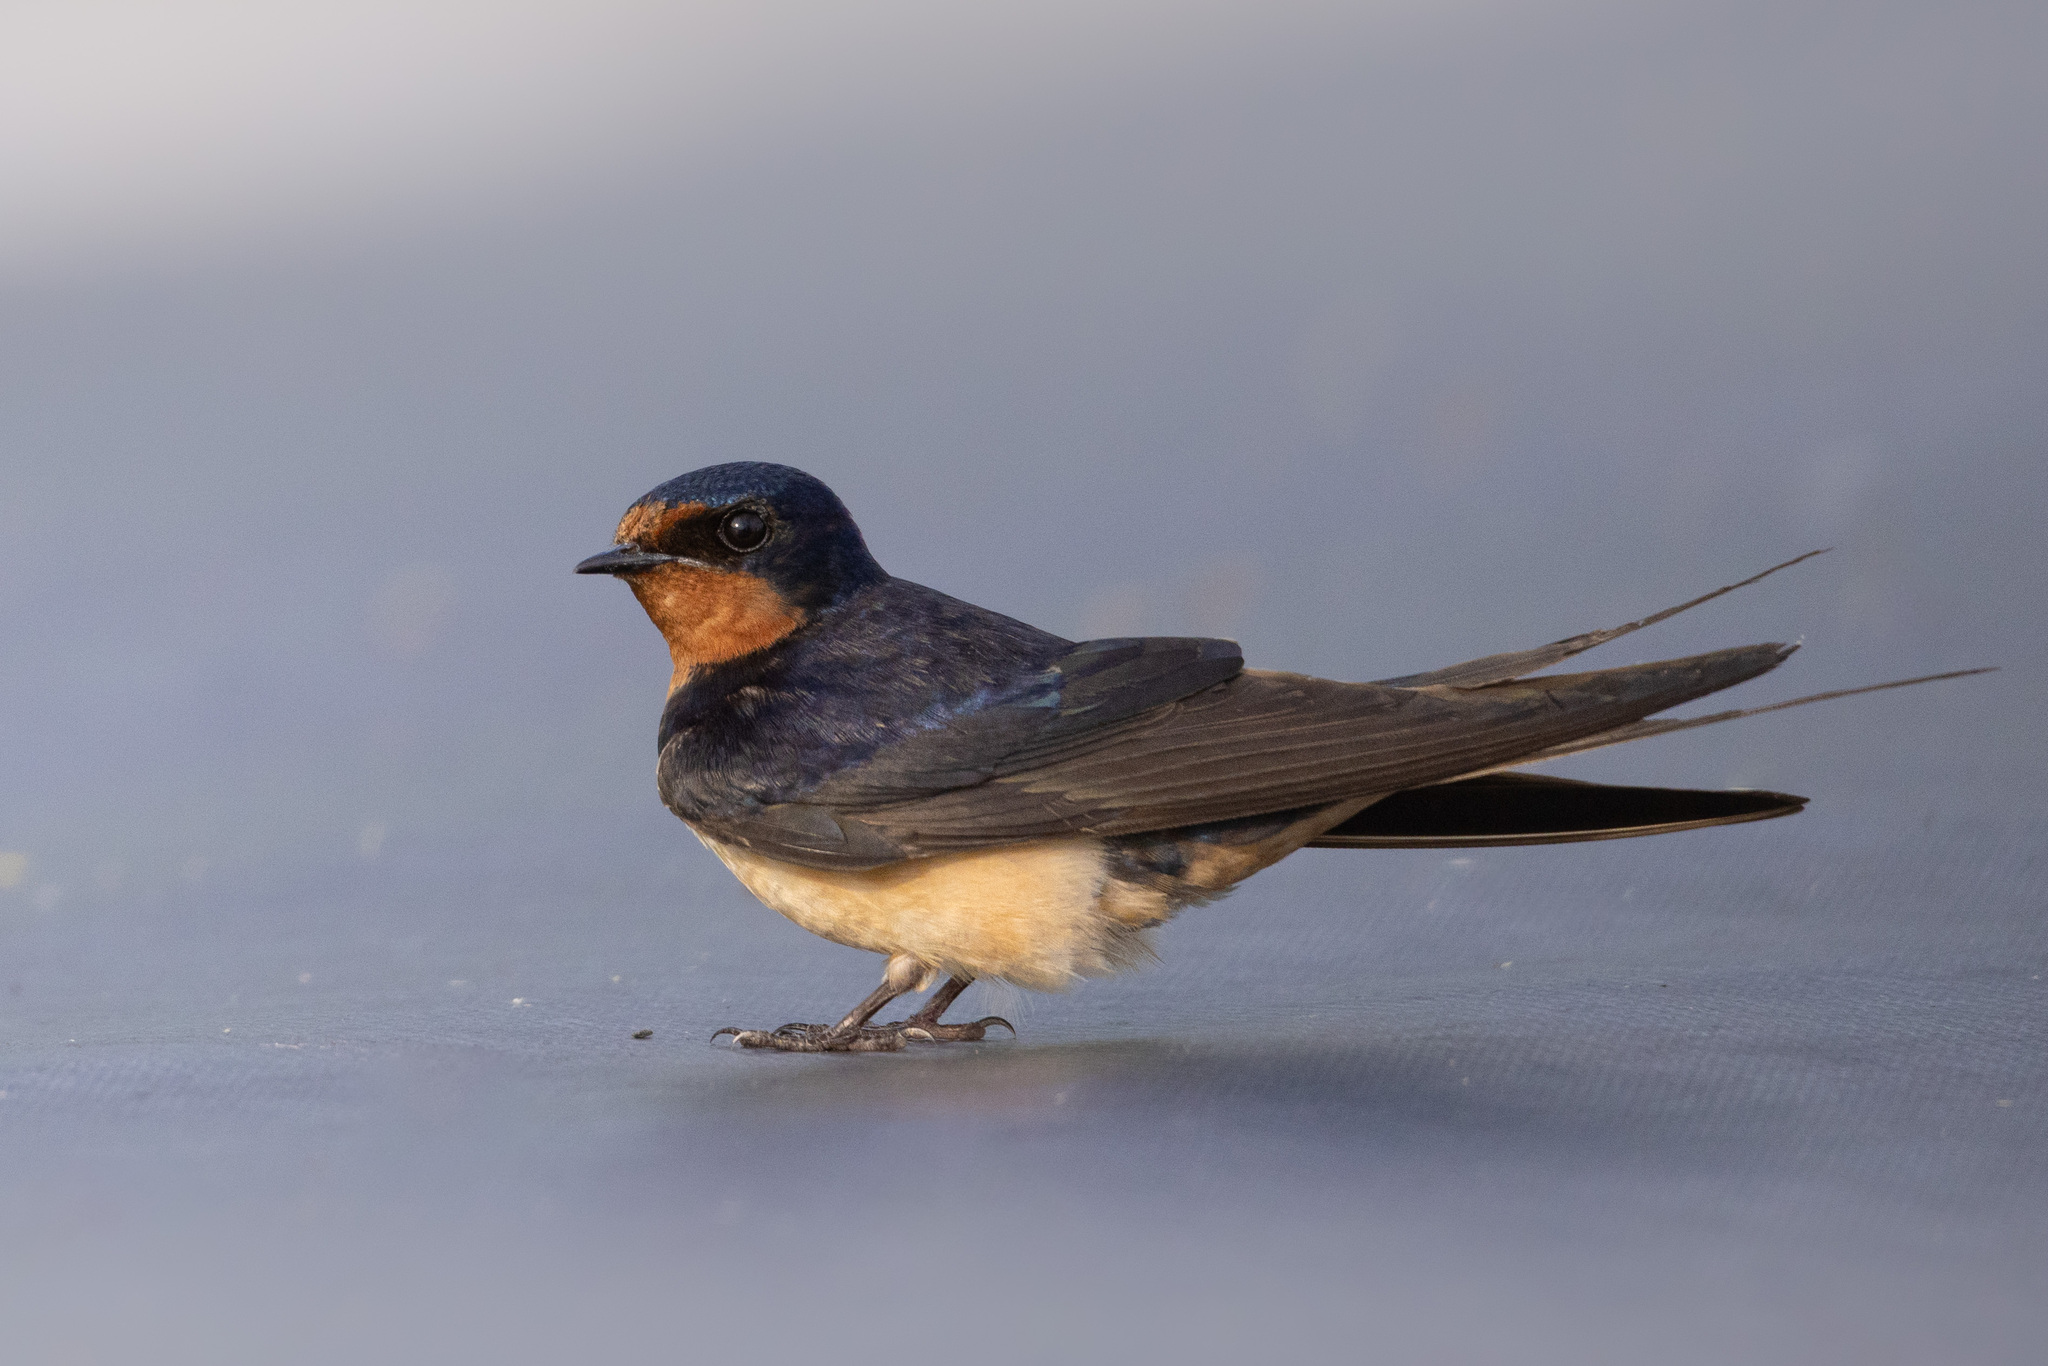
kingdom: Animalia
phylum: Chordata
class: Aves
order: Passeriformes
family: Hirundinidae
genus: Hirundo
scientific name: Hirundo rustica
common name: Barn swallow
